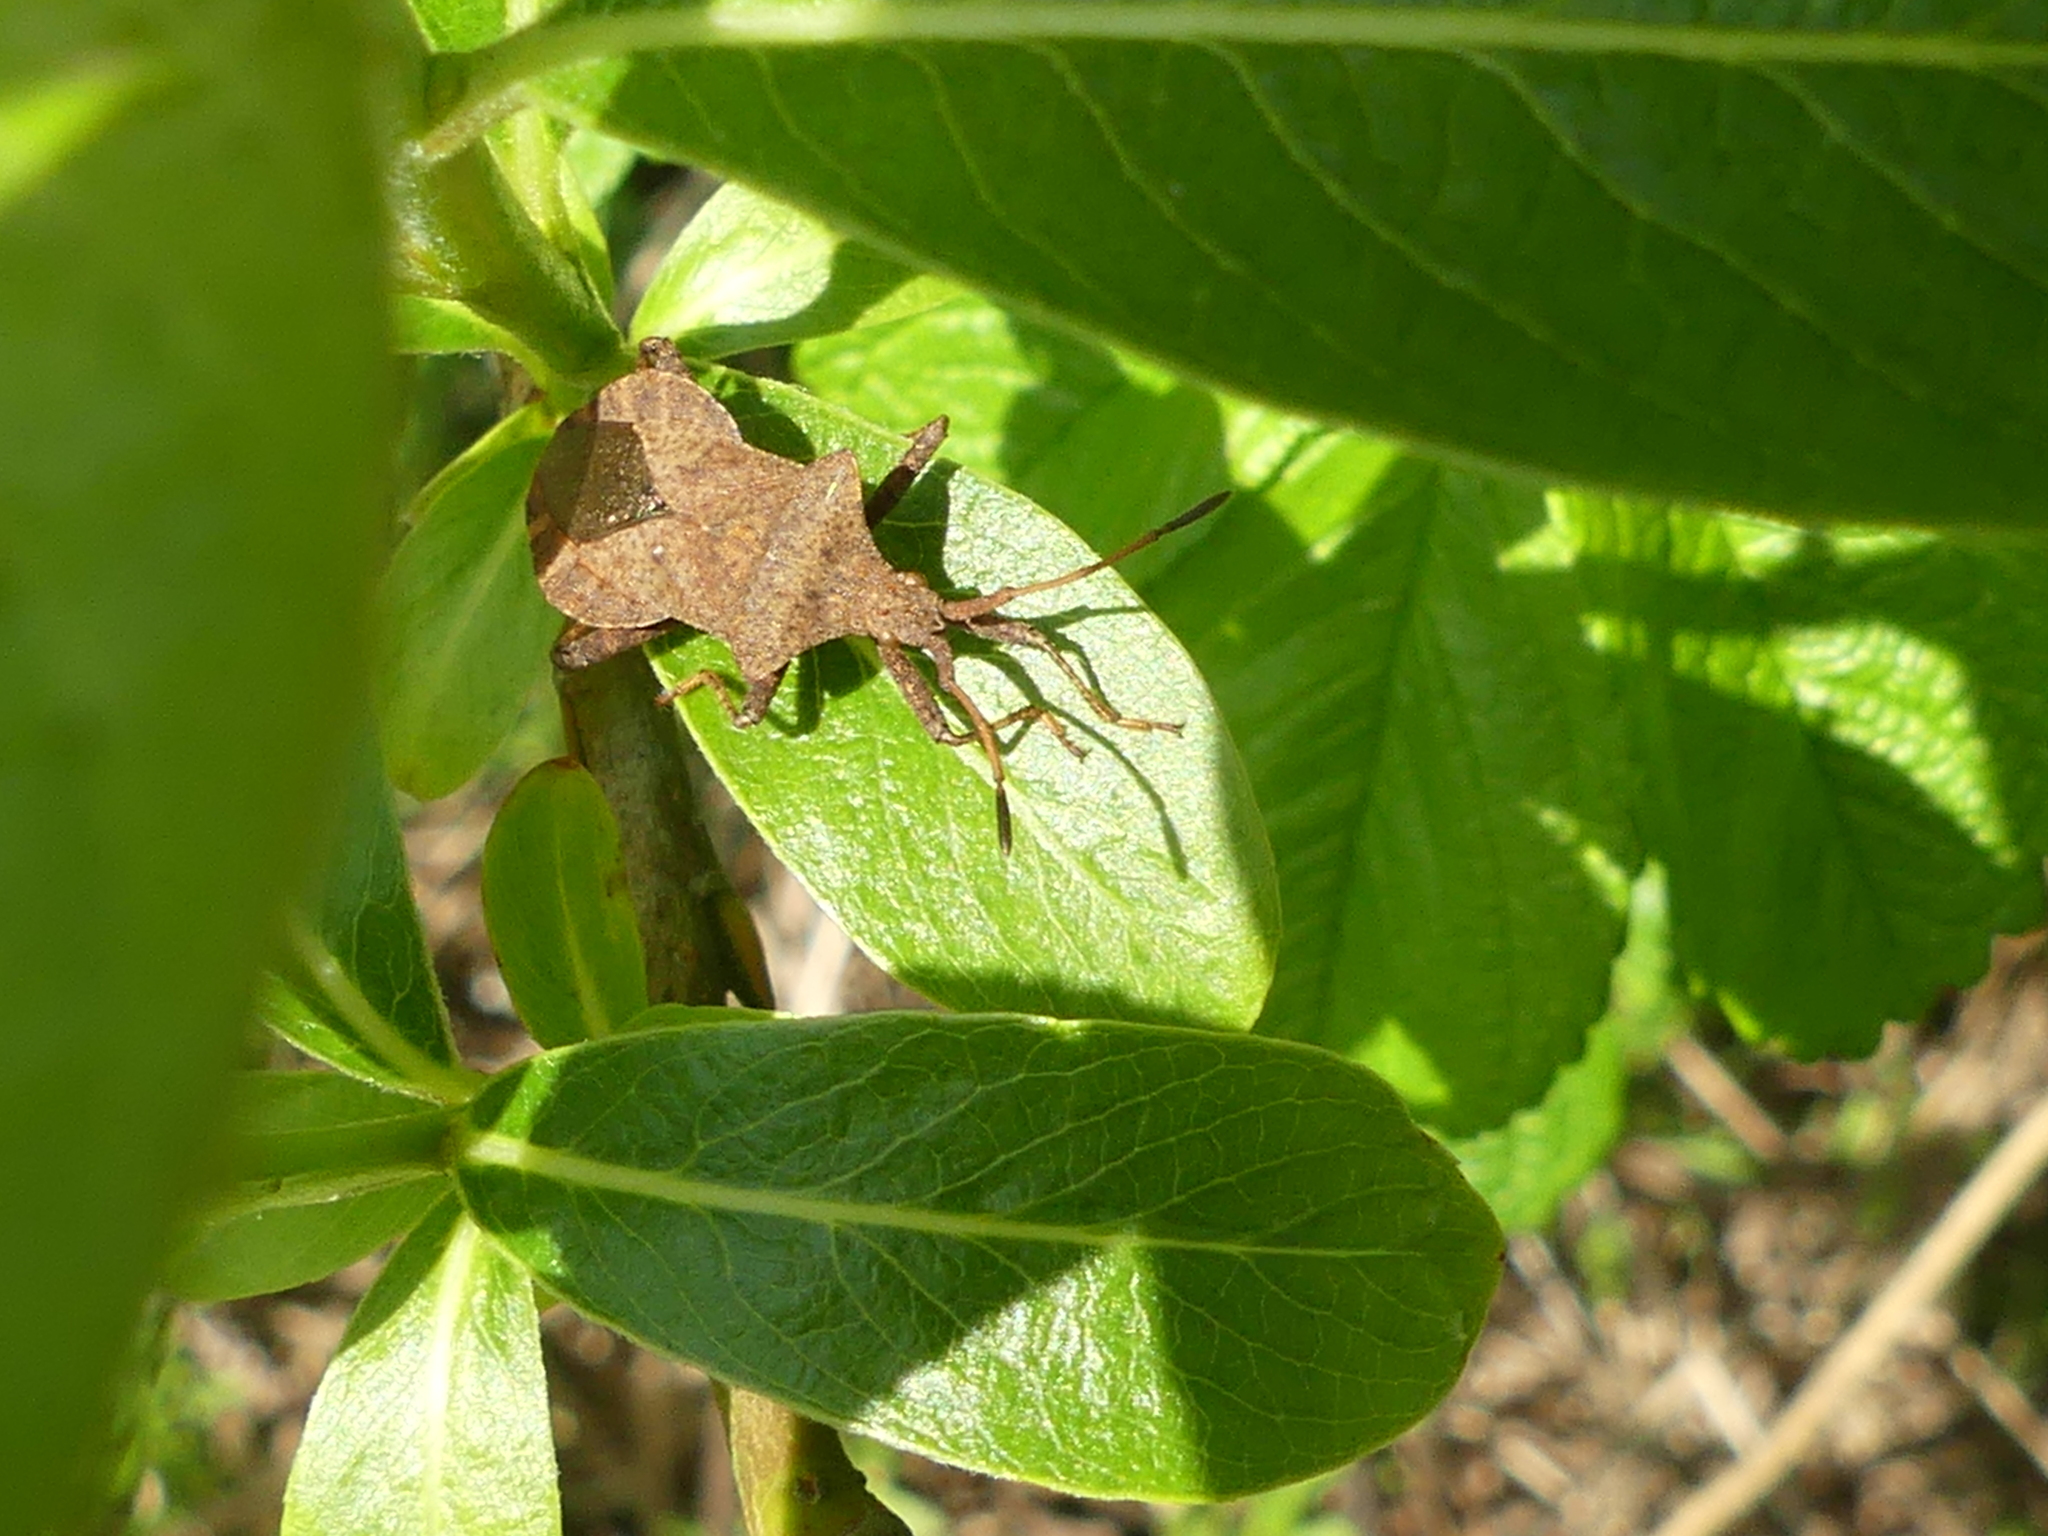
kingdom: Animalia
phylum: Arthropoda
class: Insecta
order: Hemiptera
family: Coreidae
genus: Coreus
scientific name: Coreus marginatus
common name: Dock bug
